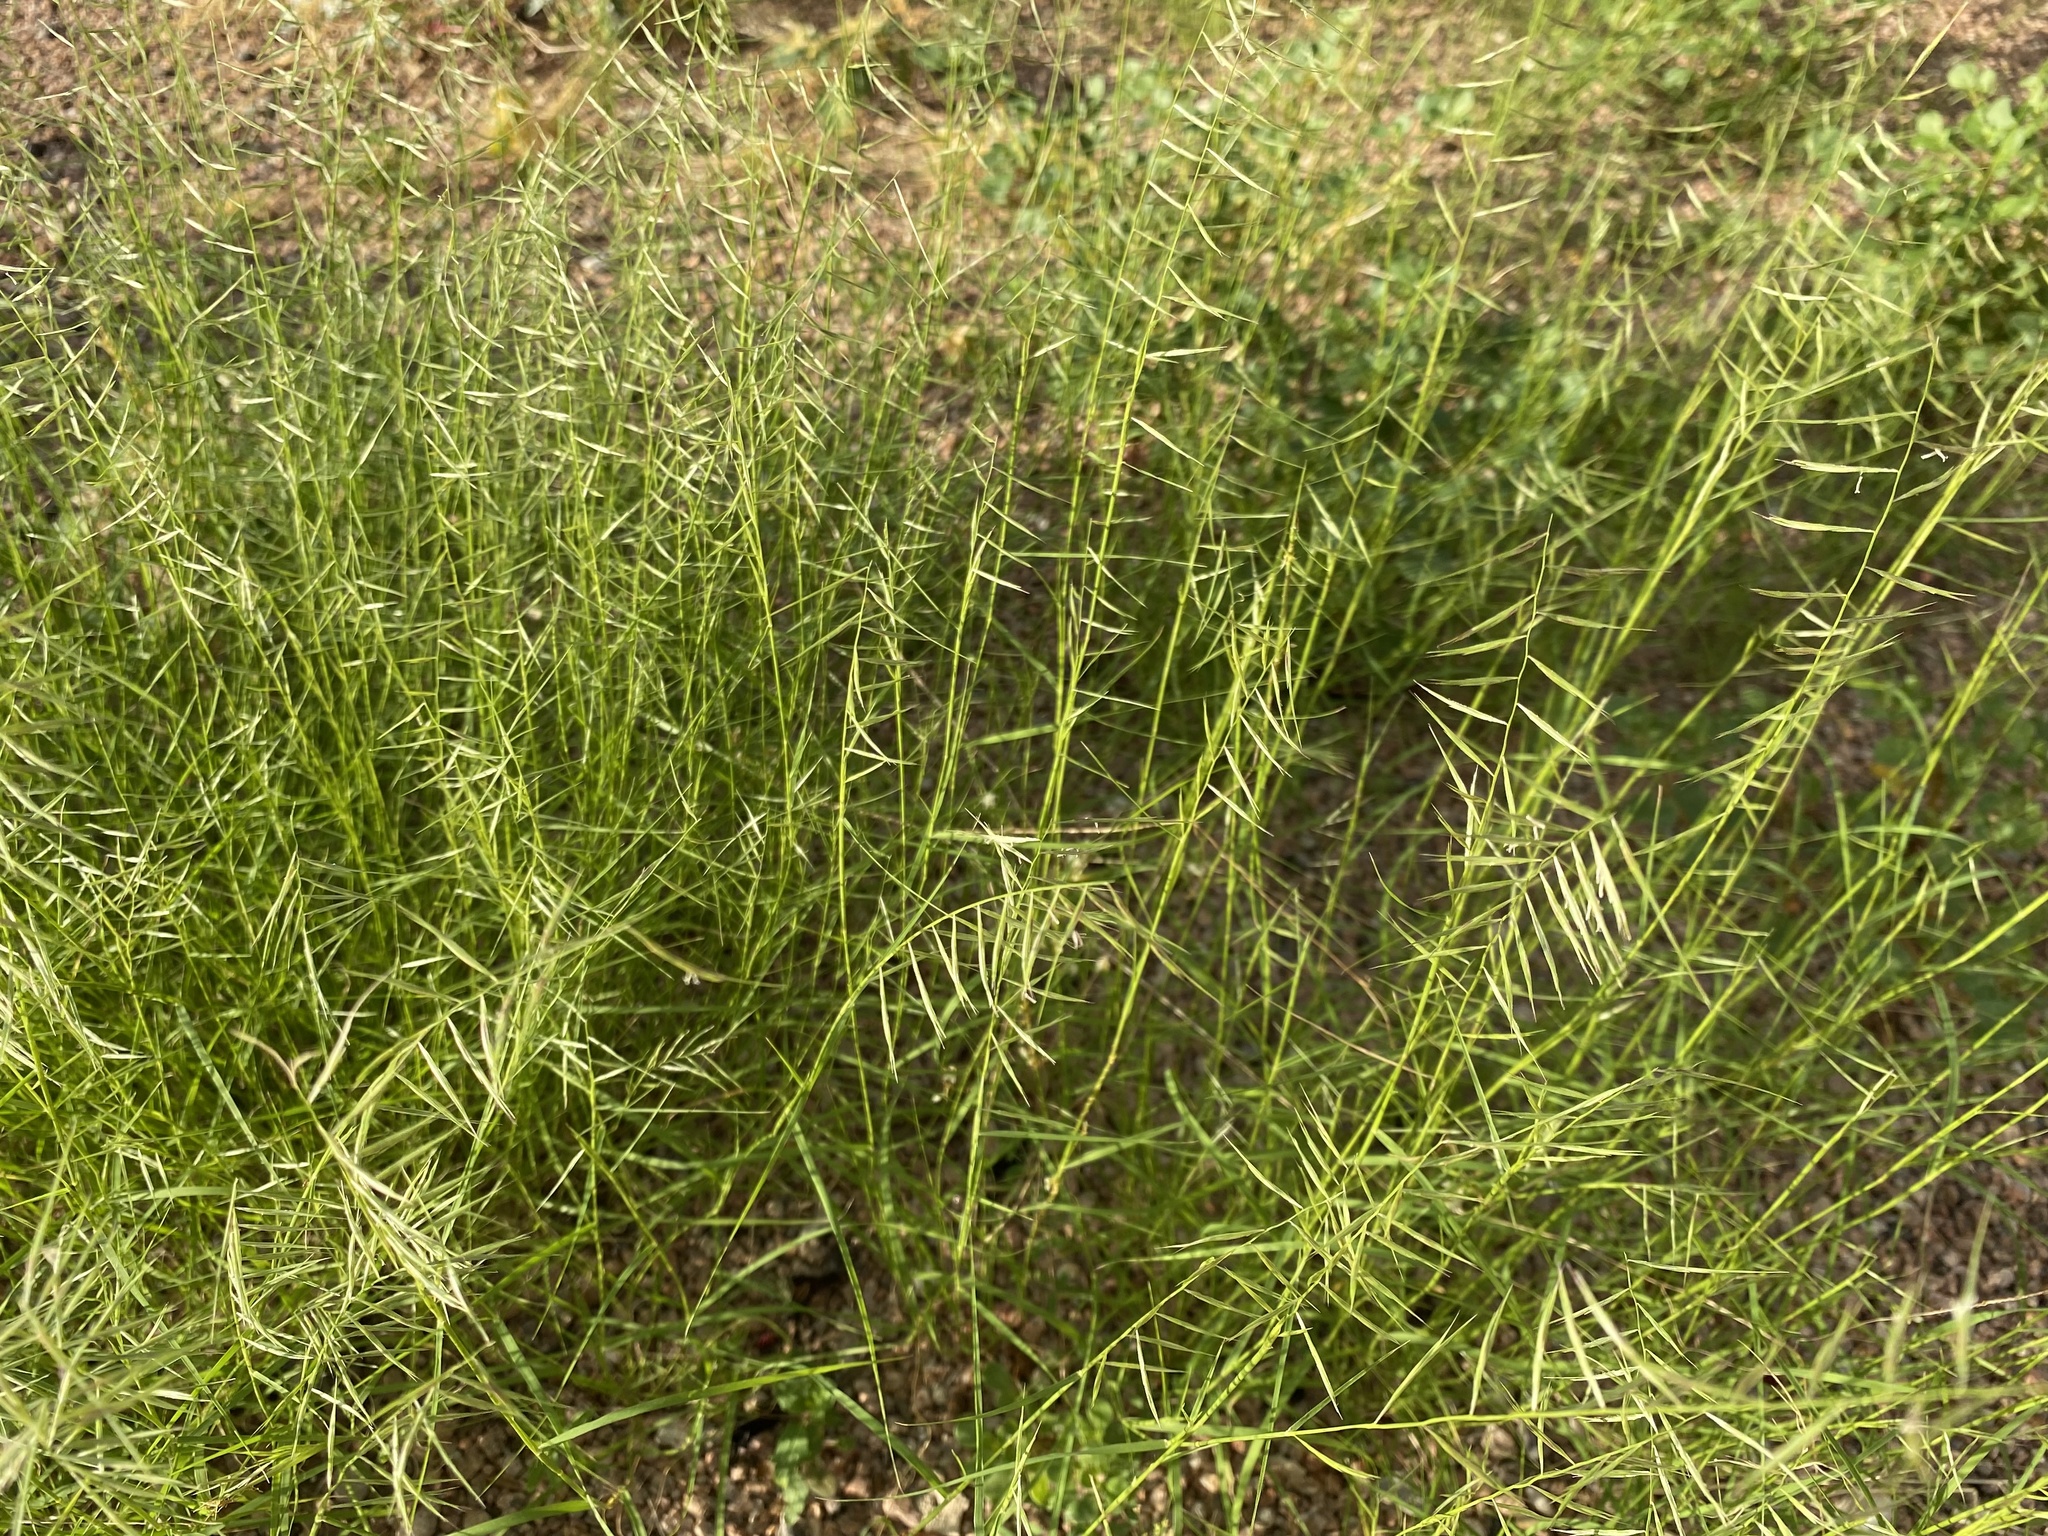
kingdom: Plantae
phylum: Tracheophyta
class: Liliopsida
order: Poales
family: Poaceae
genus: Bouteloua
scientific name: Bouteloua aristidoides
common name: Needle grama
